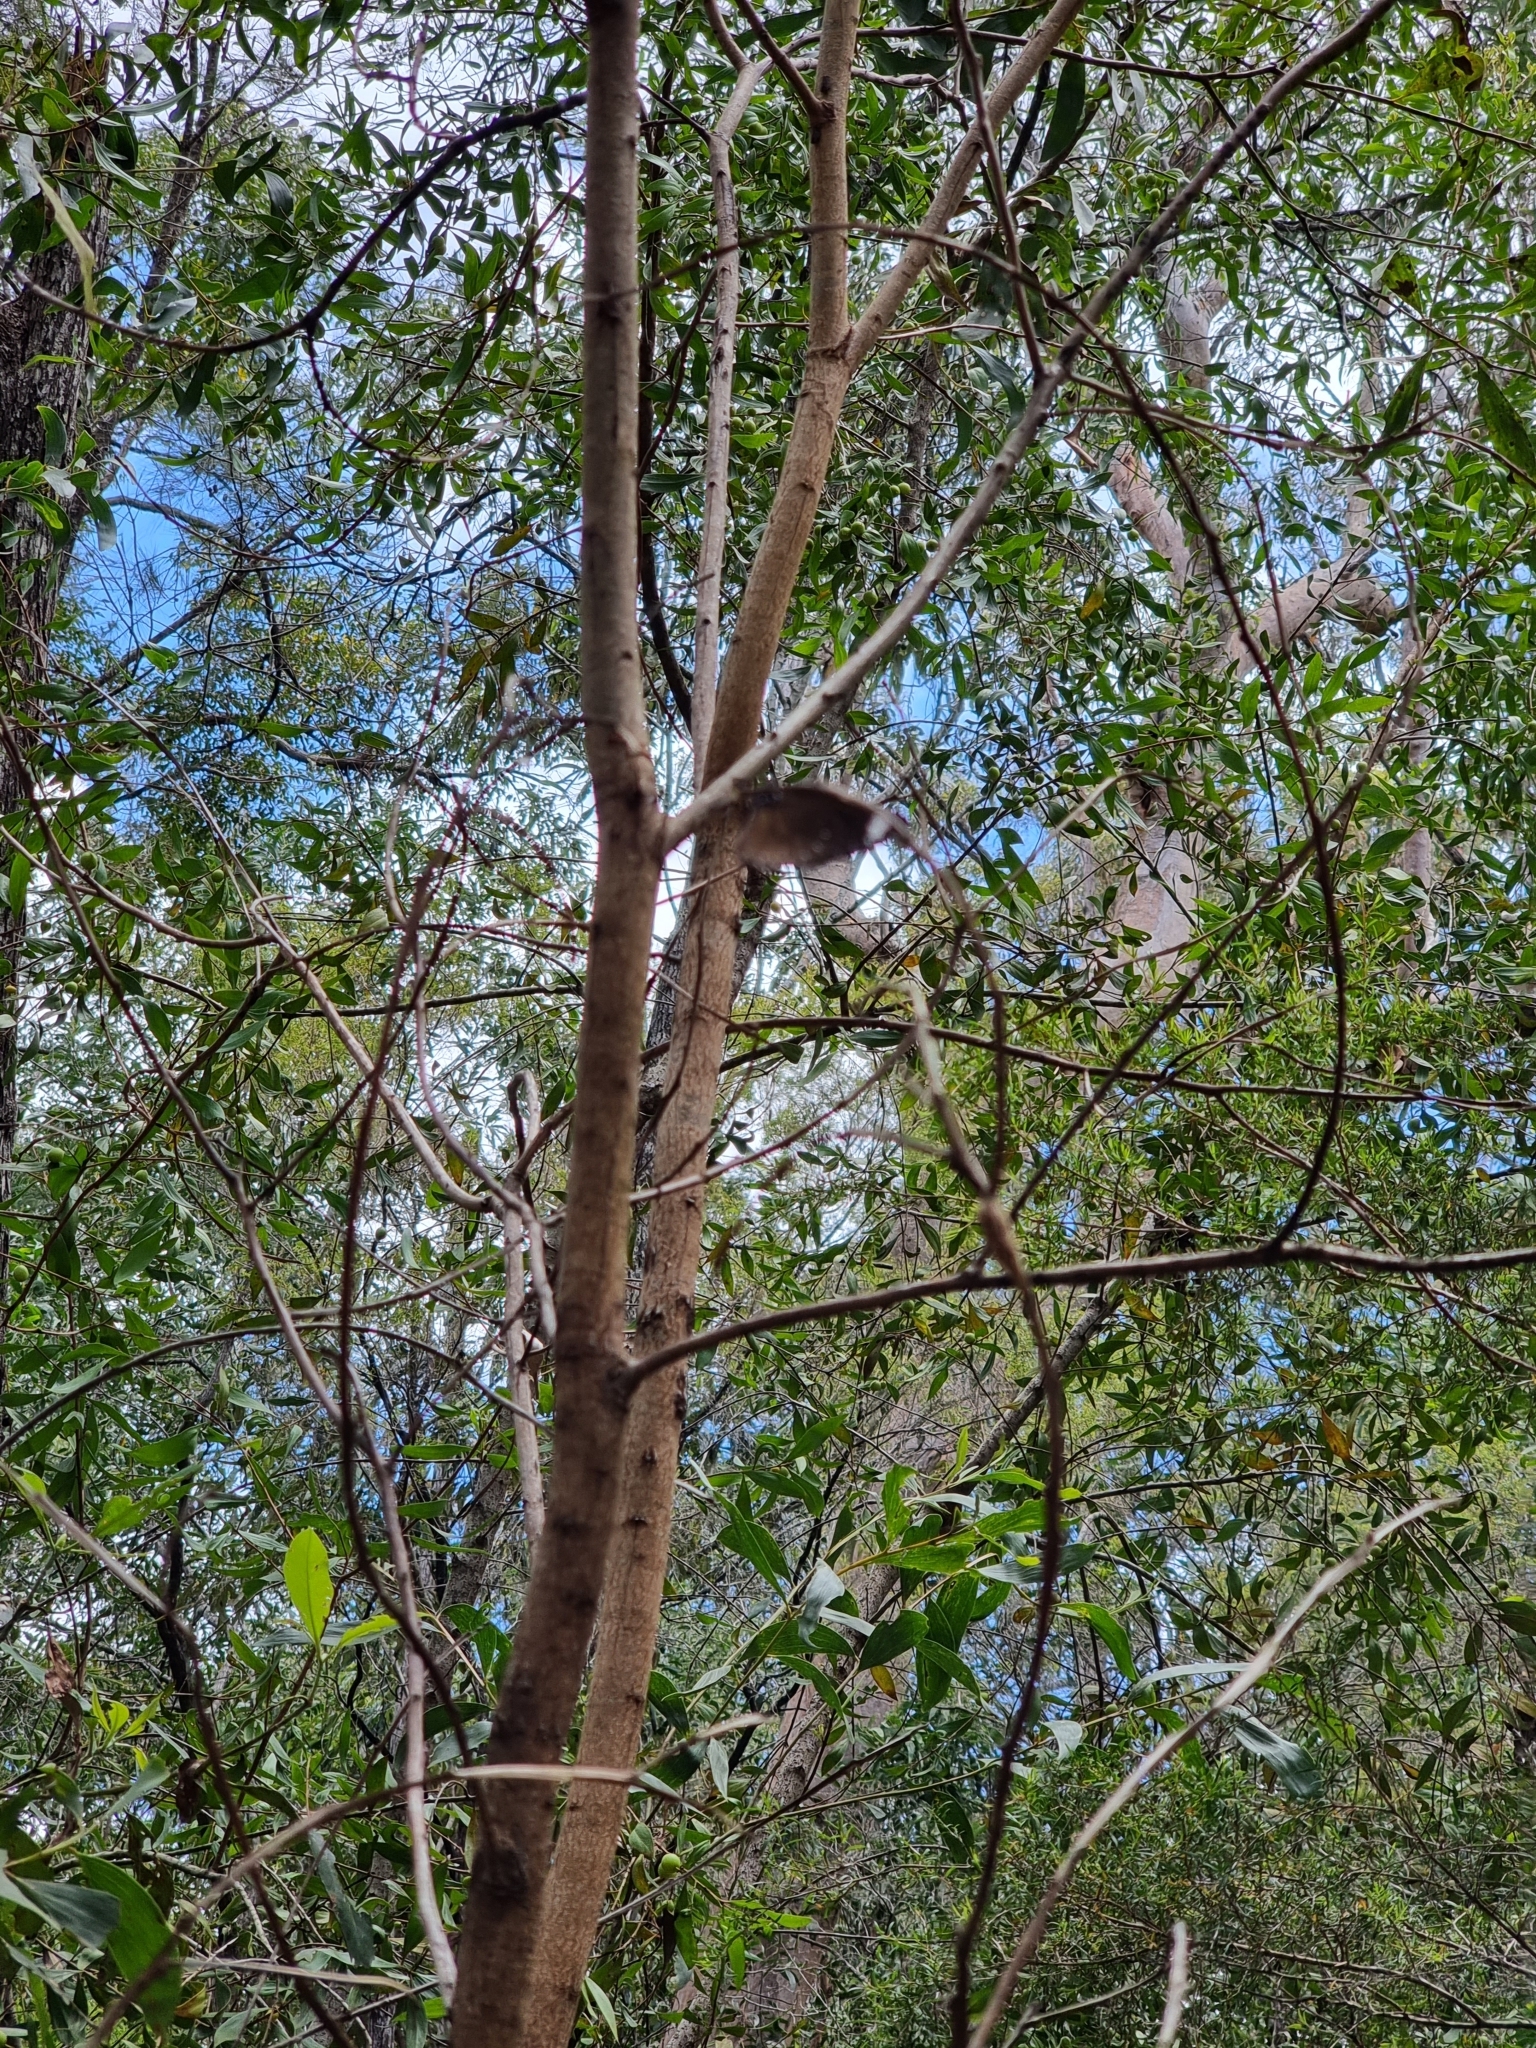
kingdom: Animalia
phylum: Arthropoda
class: Insecta
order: Lepidoptera
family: Nymphalidae
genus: Euploea
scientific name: Euploea tulliolus
